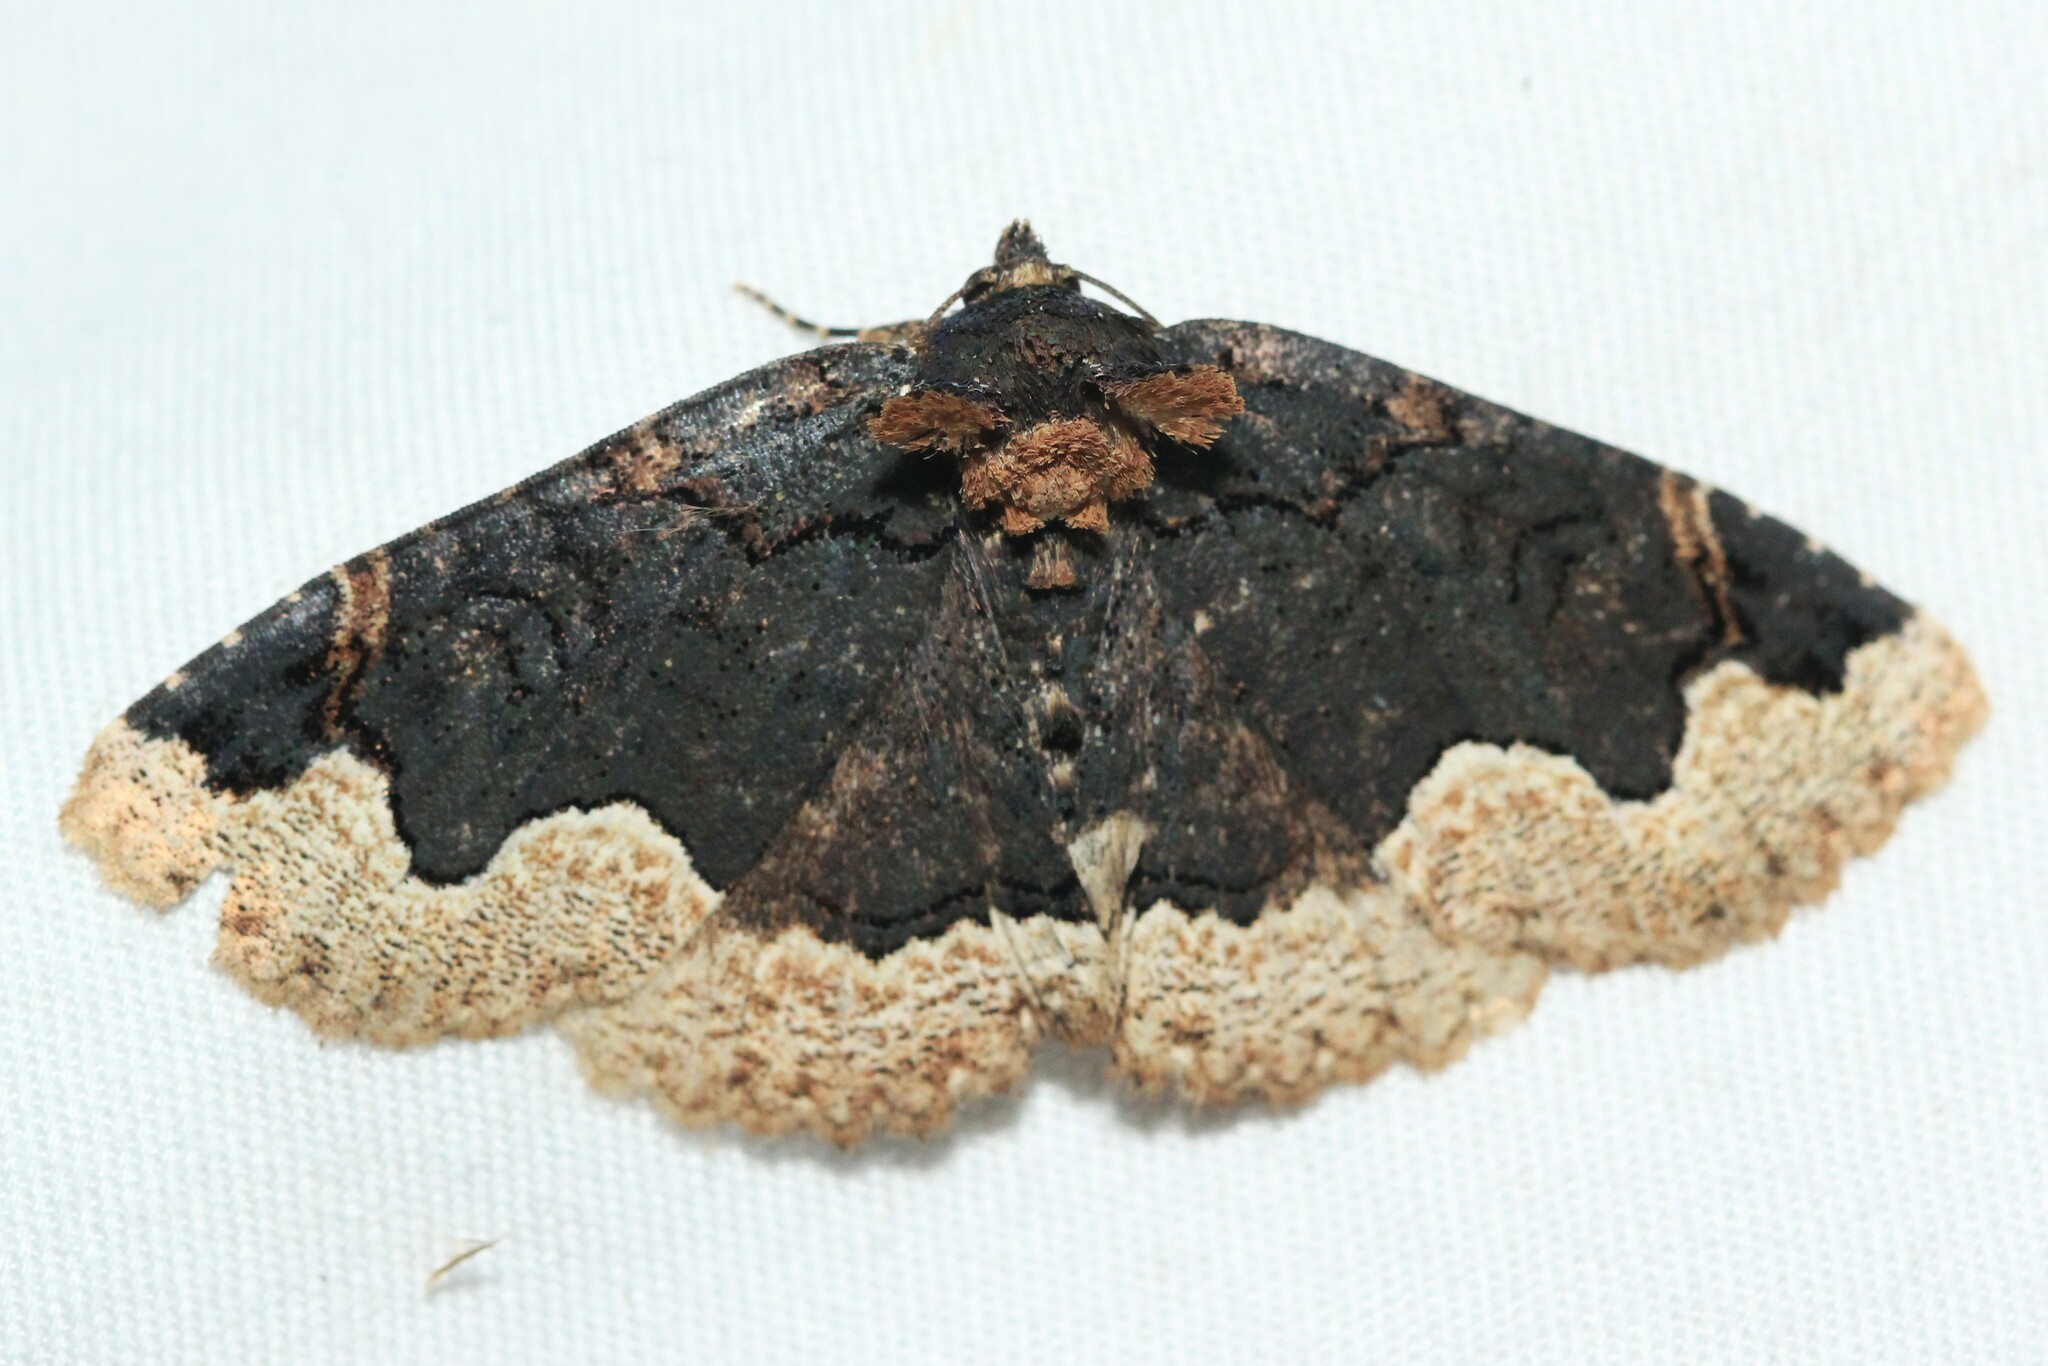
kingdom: Animalia
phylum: Arthropoda
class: Insecta
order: Lepidoptera
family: Erebidae
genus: Zale
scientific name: Zale horrida
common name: Horrid zale moth
